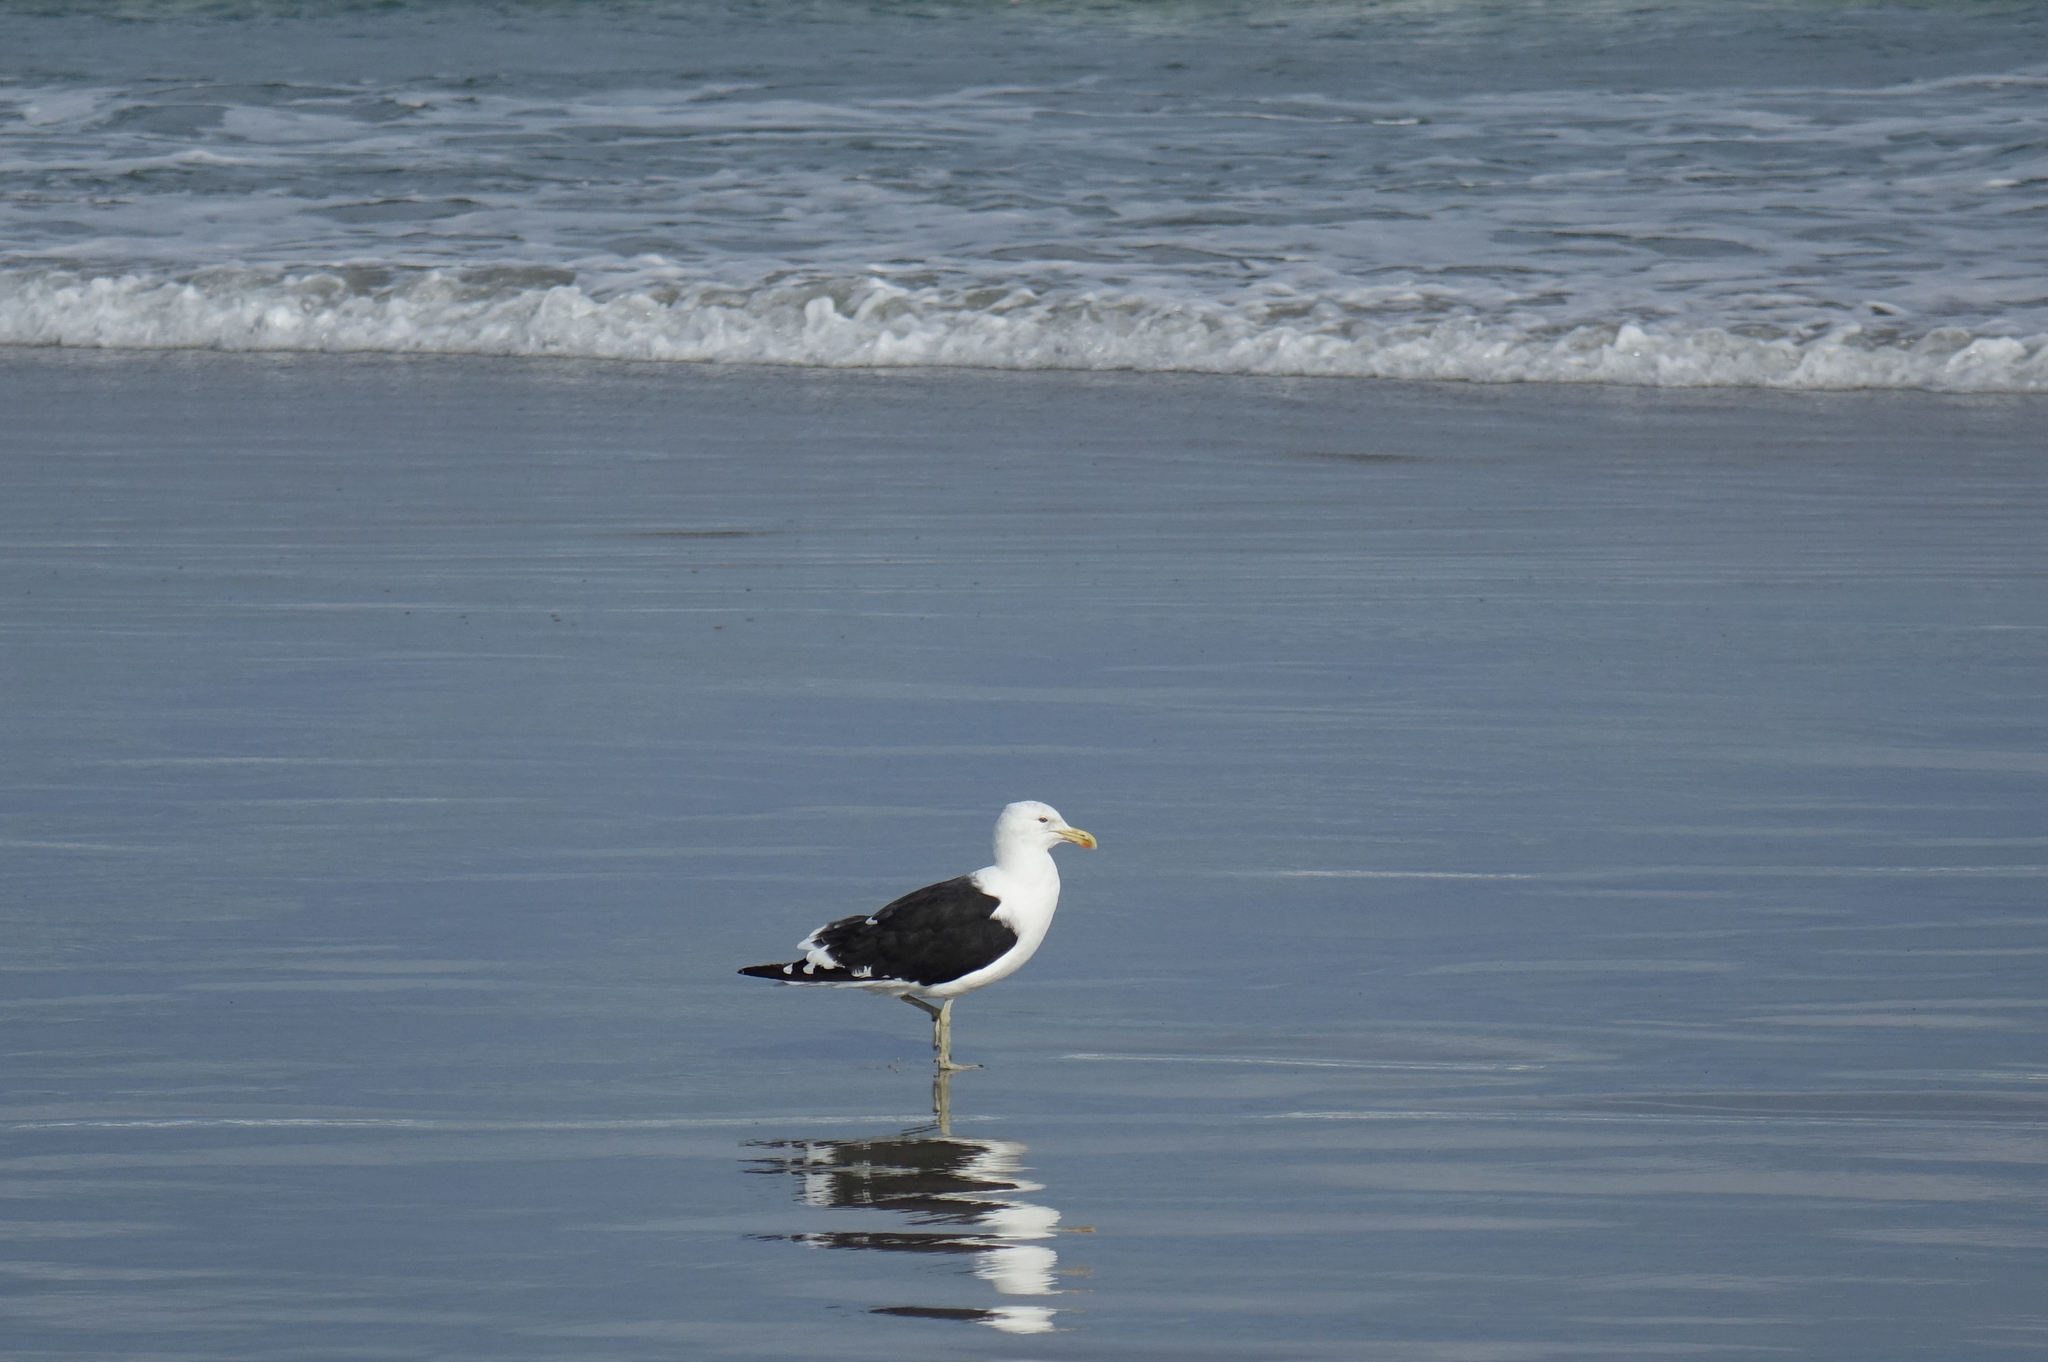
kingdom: Animalia
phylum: Chordata
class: Aves
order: Charadriiformes
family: Laridae
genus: Larus
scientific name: Larus dominicanus
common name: Kelp gull
